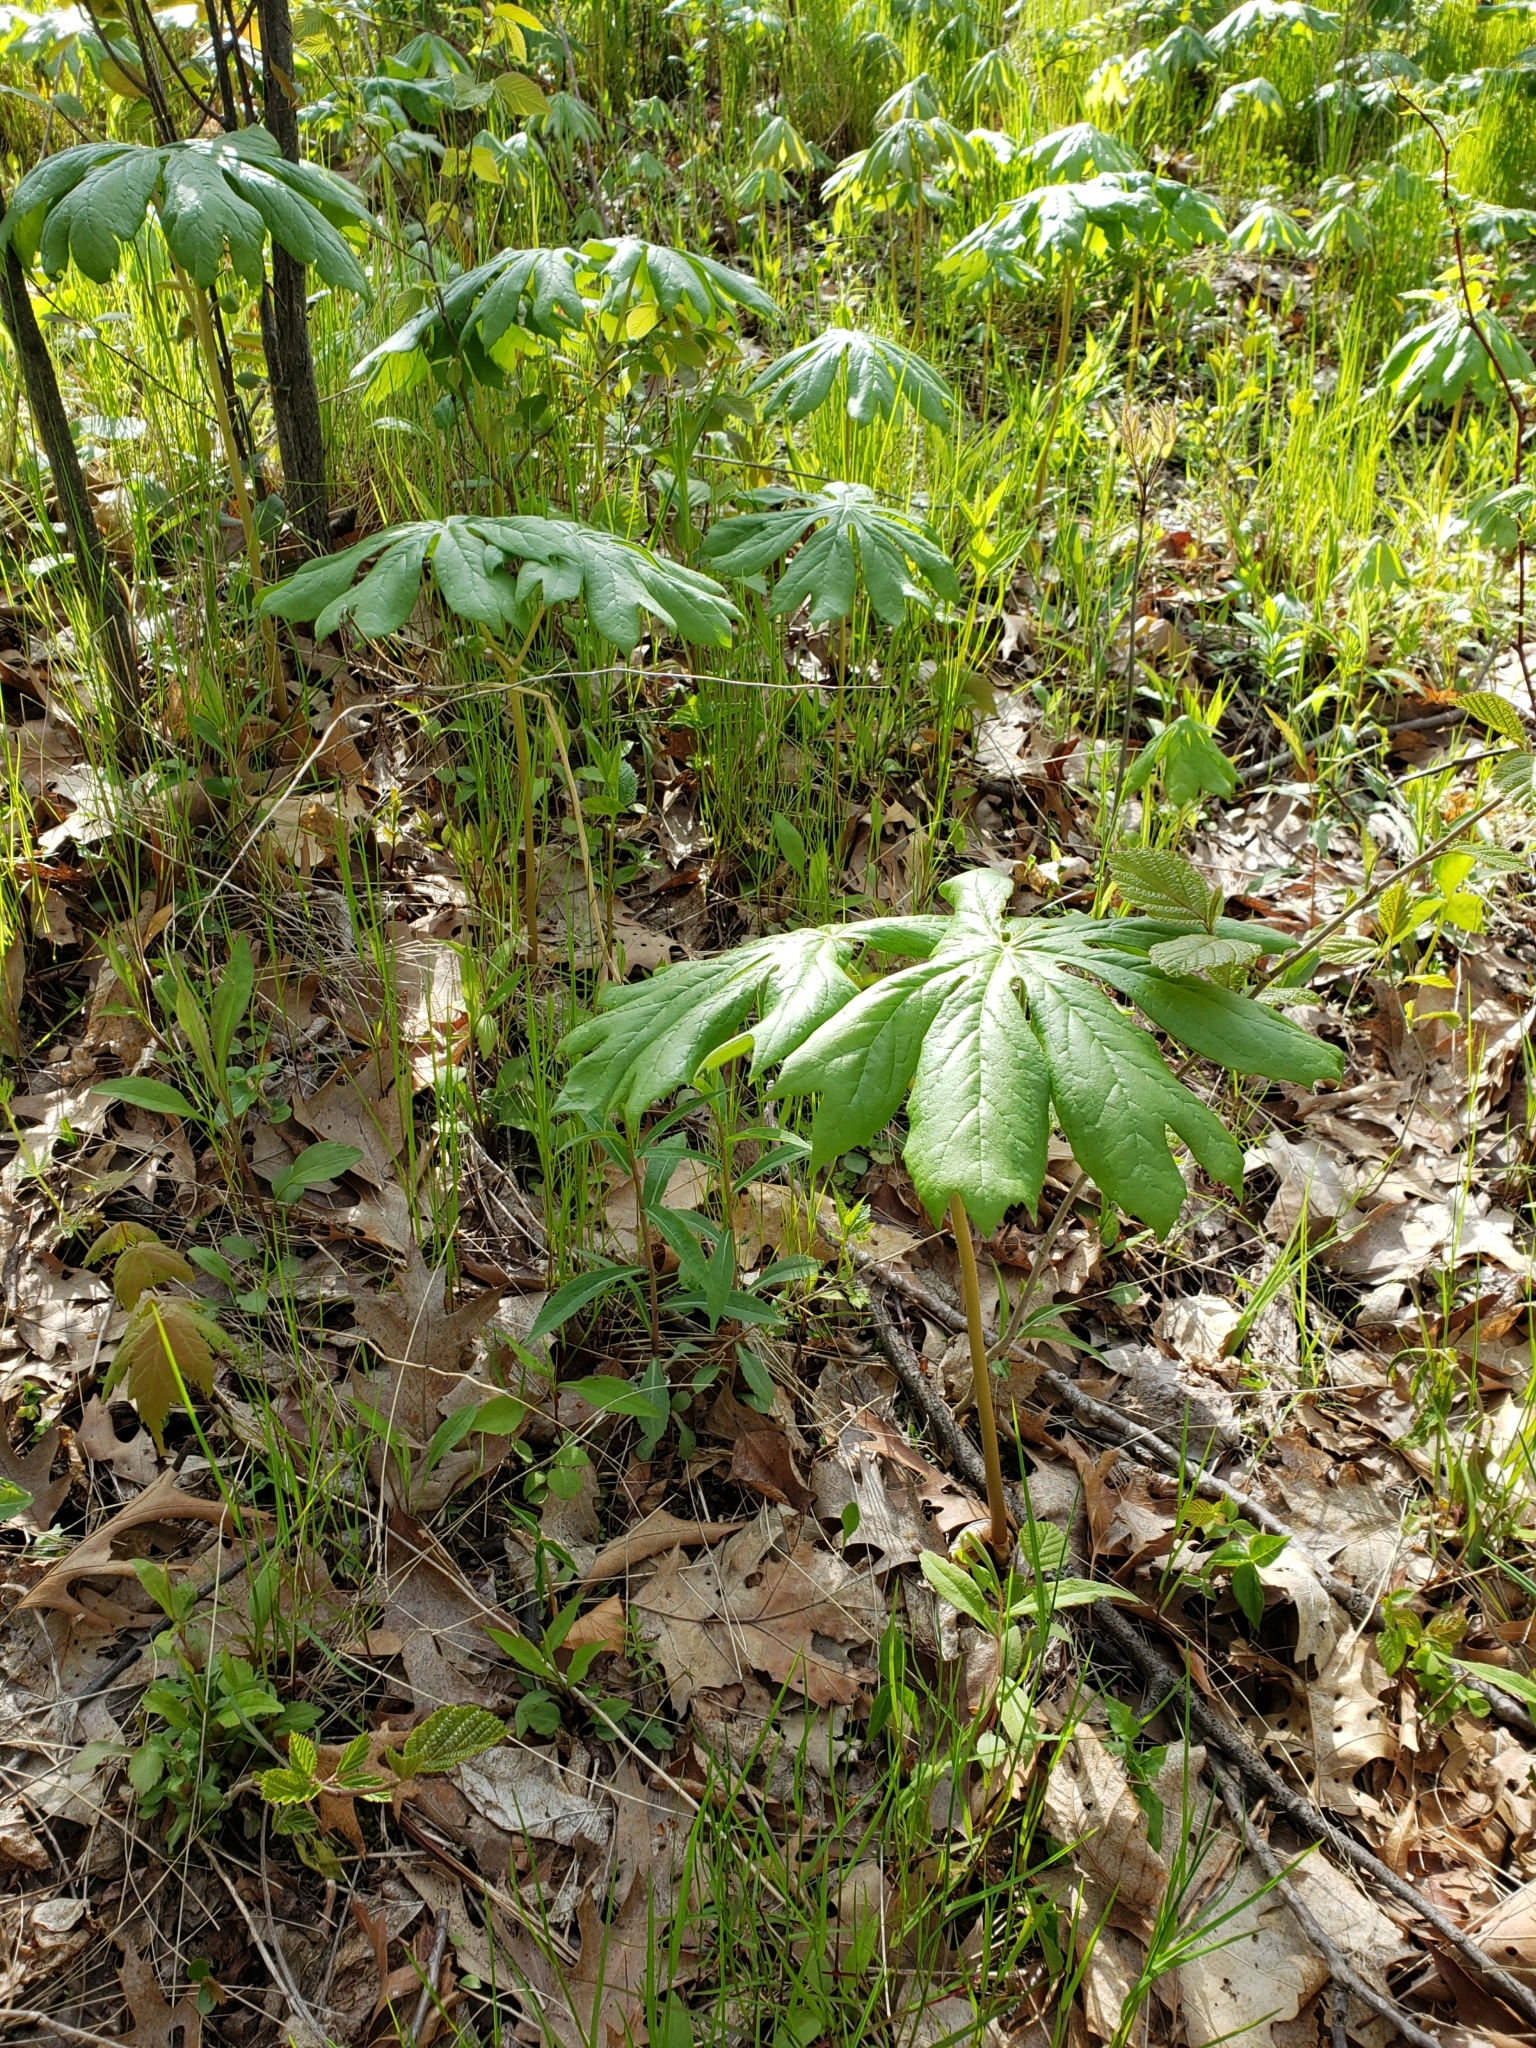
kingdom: Plantae
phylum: Tracheophyta
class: Magnoliopsida
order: Ranunculales
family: Berberidaceae
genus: Podophyllum
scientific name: Podophyllum peltatum
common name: Wild mandrake
